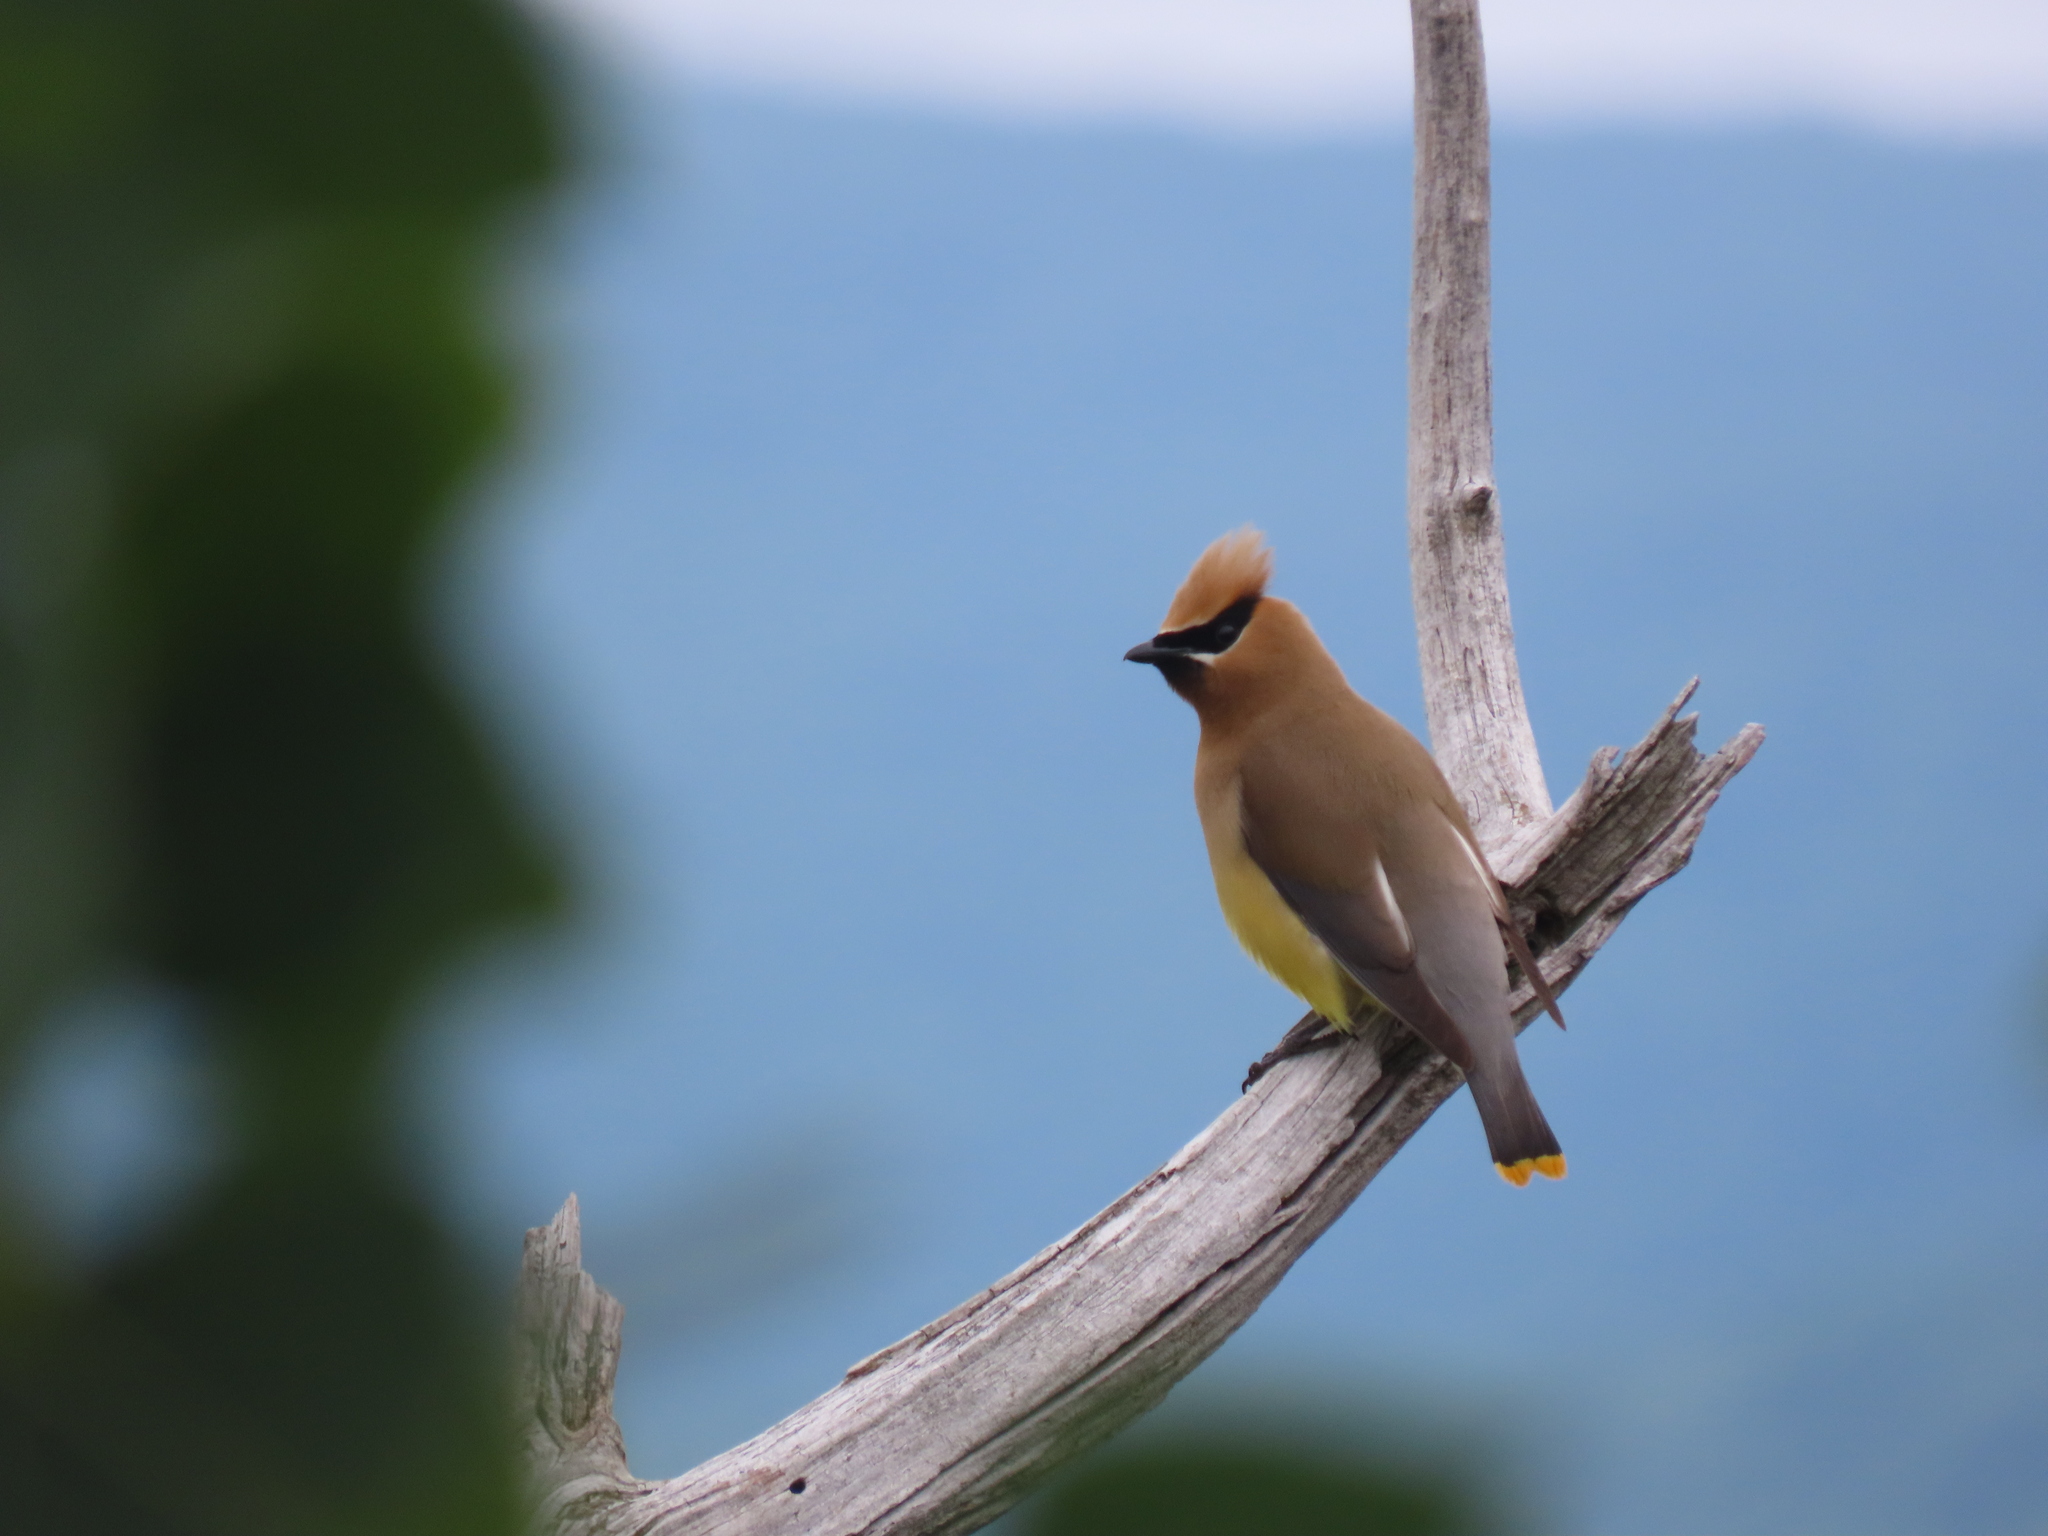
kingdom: Animalia
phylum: Chordata
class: Aves
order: Passeriformes
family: Bombycillidae
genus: Bombycilla
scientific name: Bombycilla cedrorum
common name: Cedar waxwing
